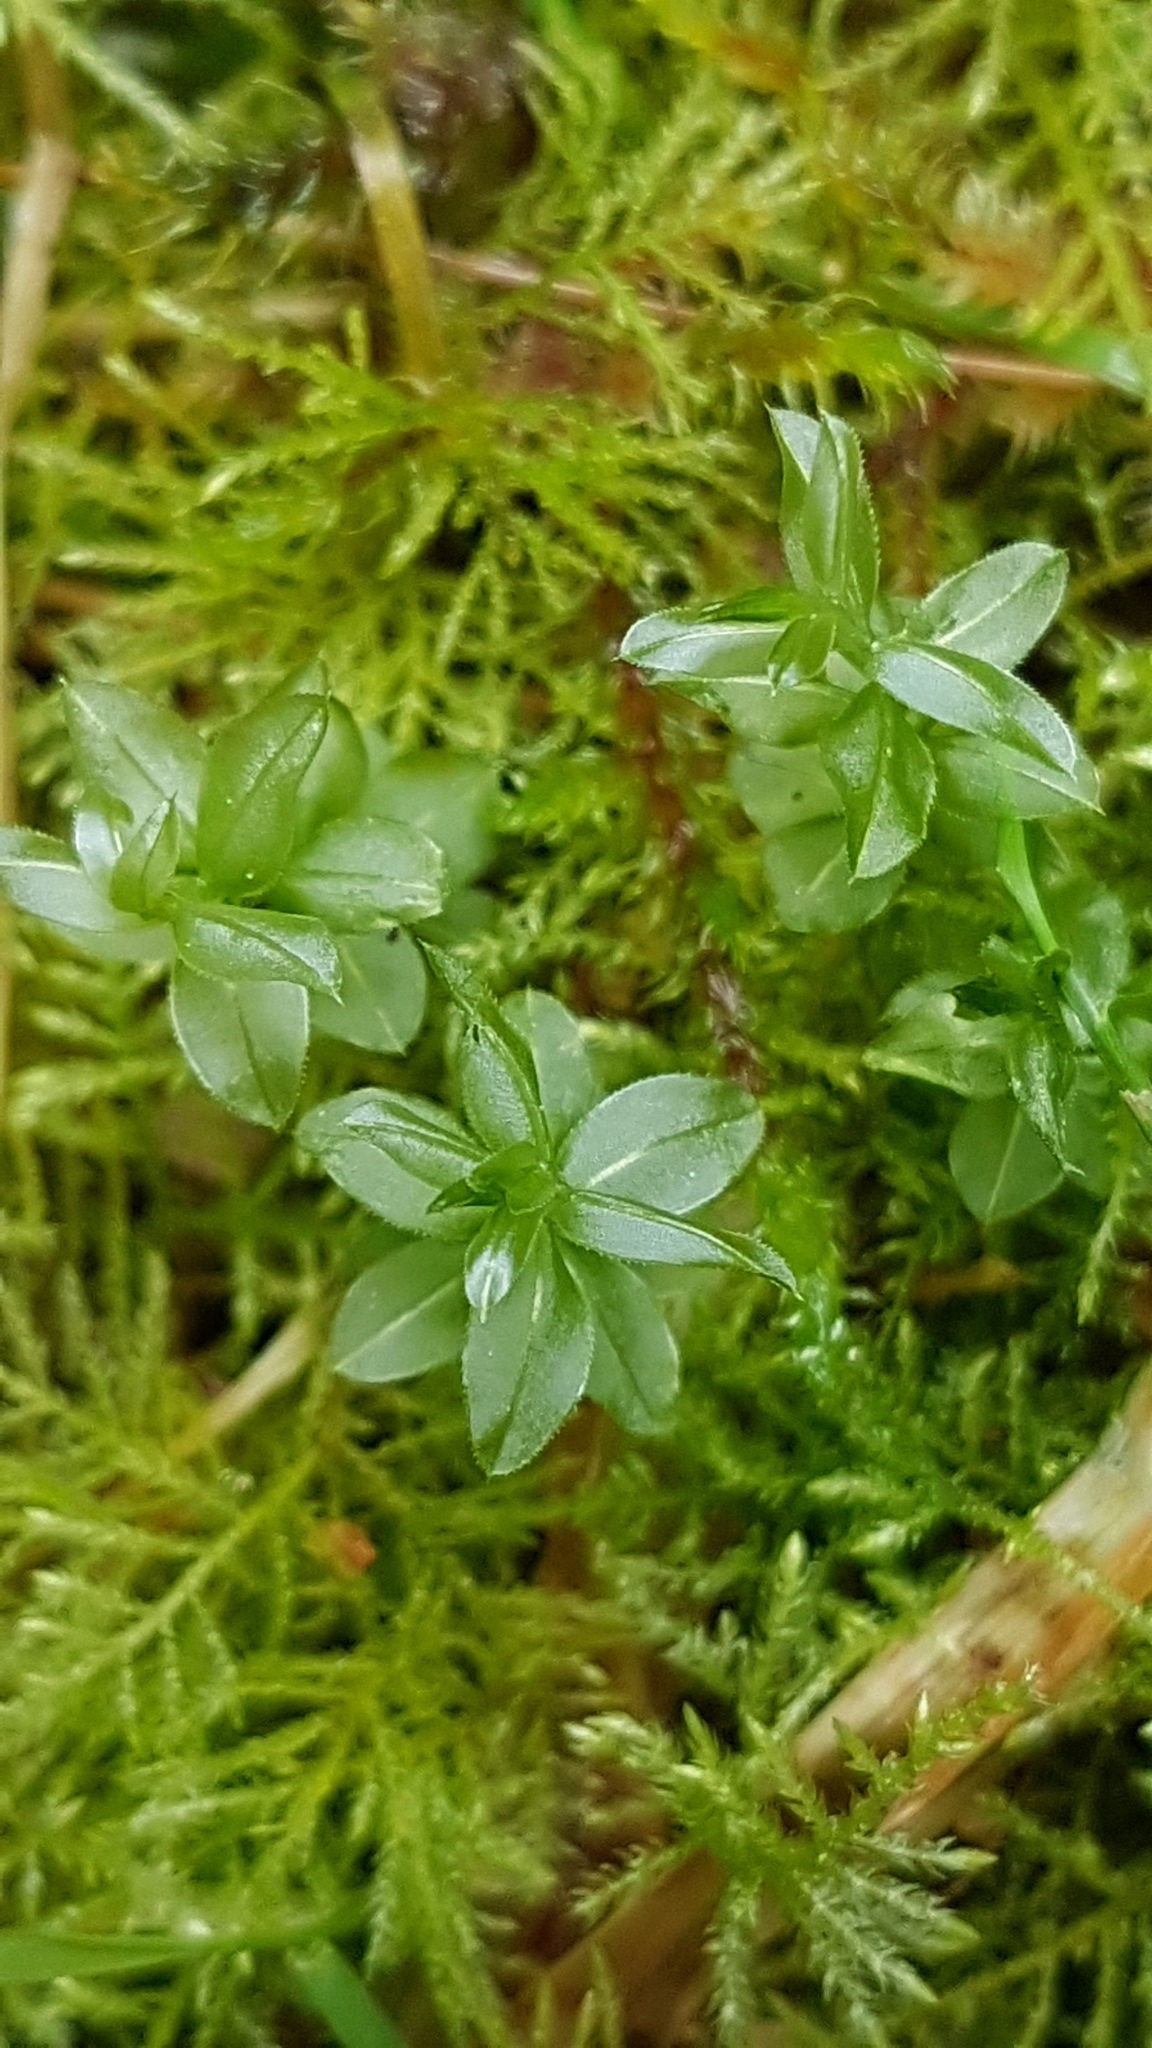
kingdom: Plantae
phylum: Bryophyta
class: Bryopsida
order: Bryales
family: Mniaceae
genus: Plagiomnium
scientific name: Plagiomnium insigne
